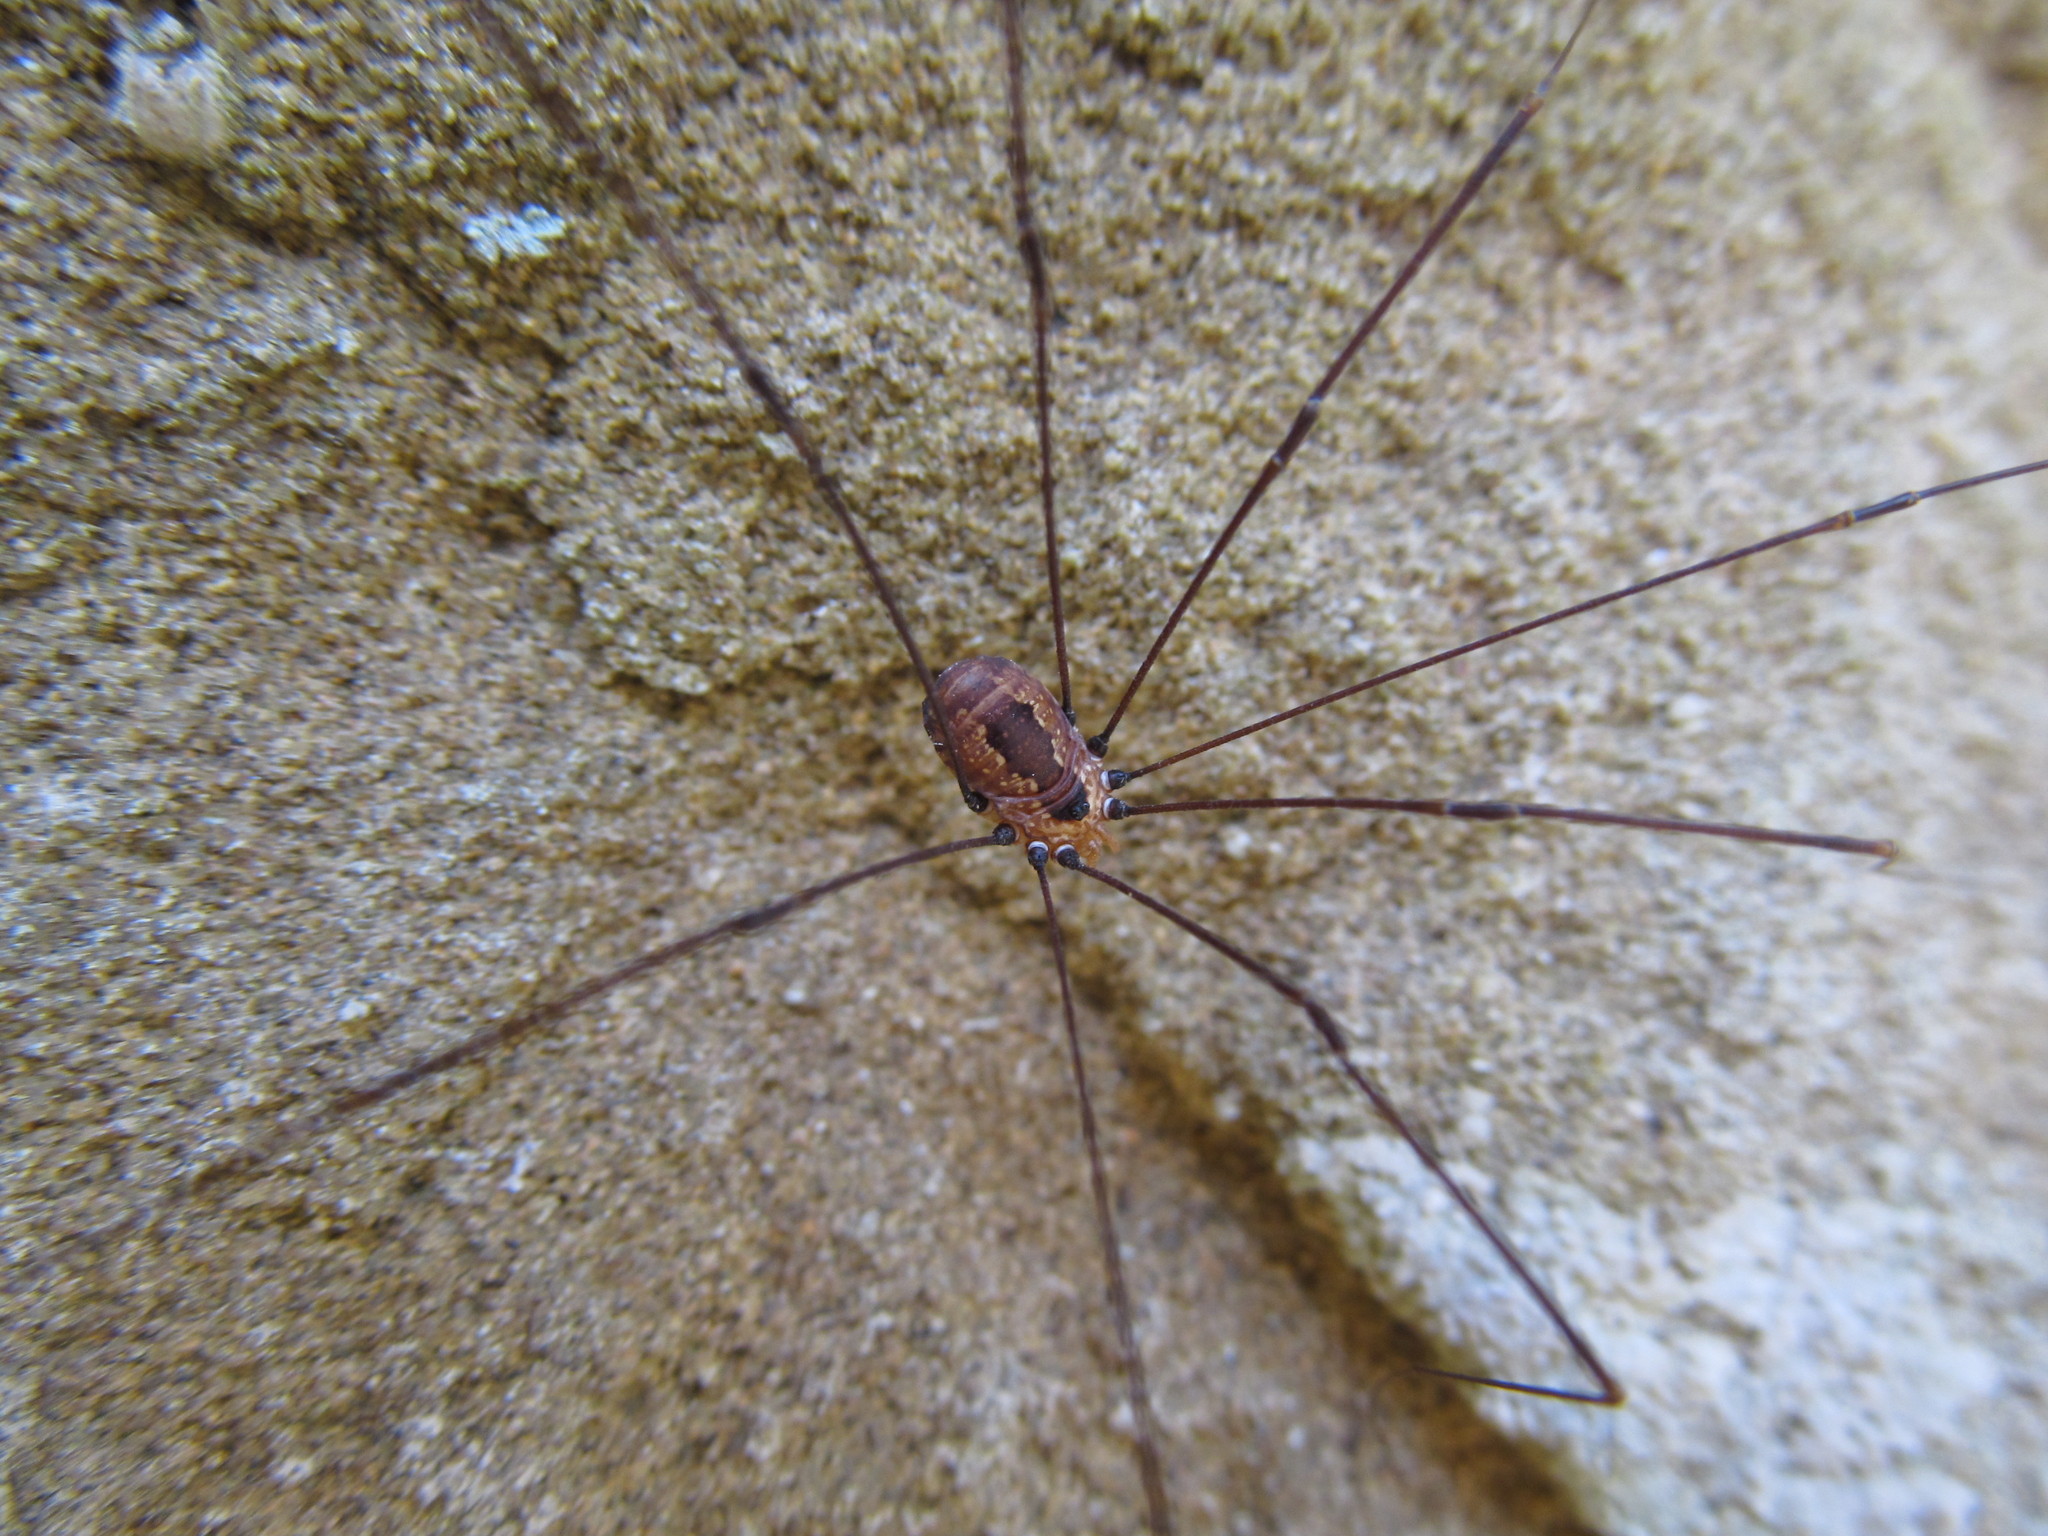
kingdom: Animalia
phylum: Arthropoda
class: Arachnida
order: Opiliones
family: Sclerosomatidae
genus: Leiobunum
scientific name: Leiobunum aldrichi
